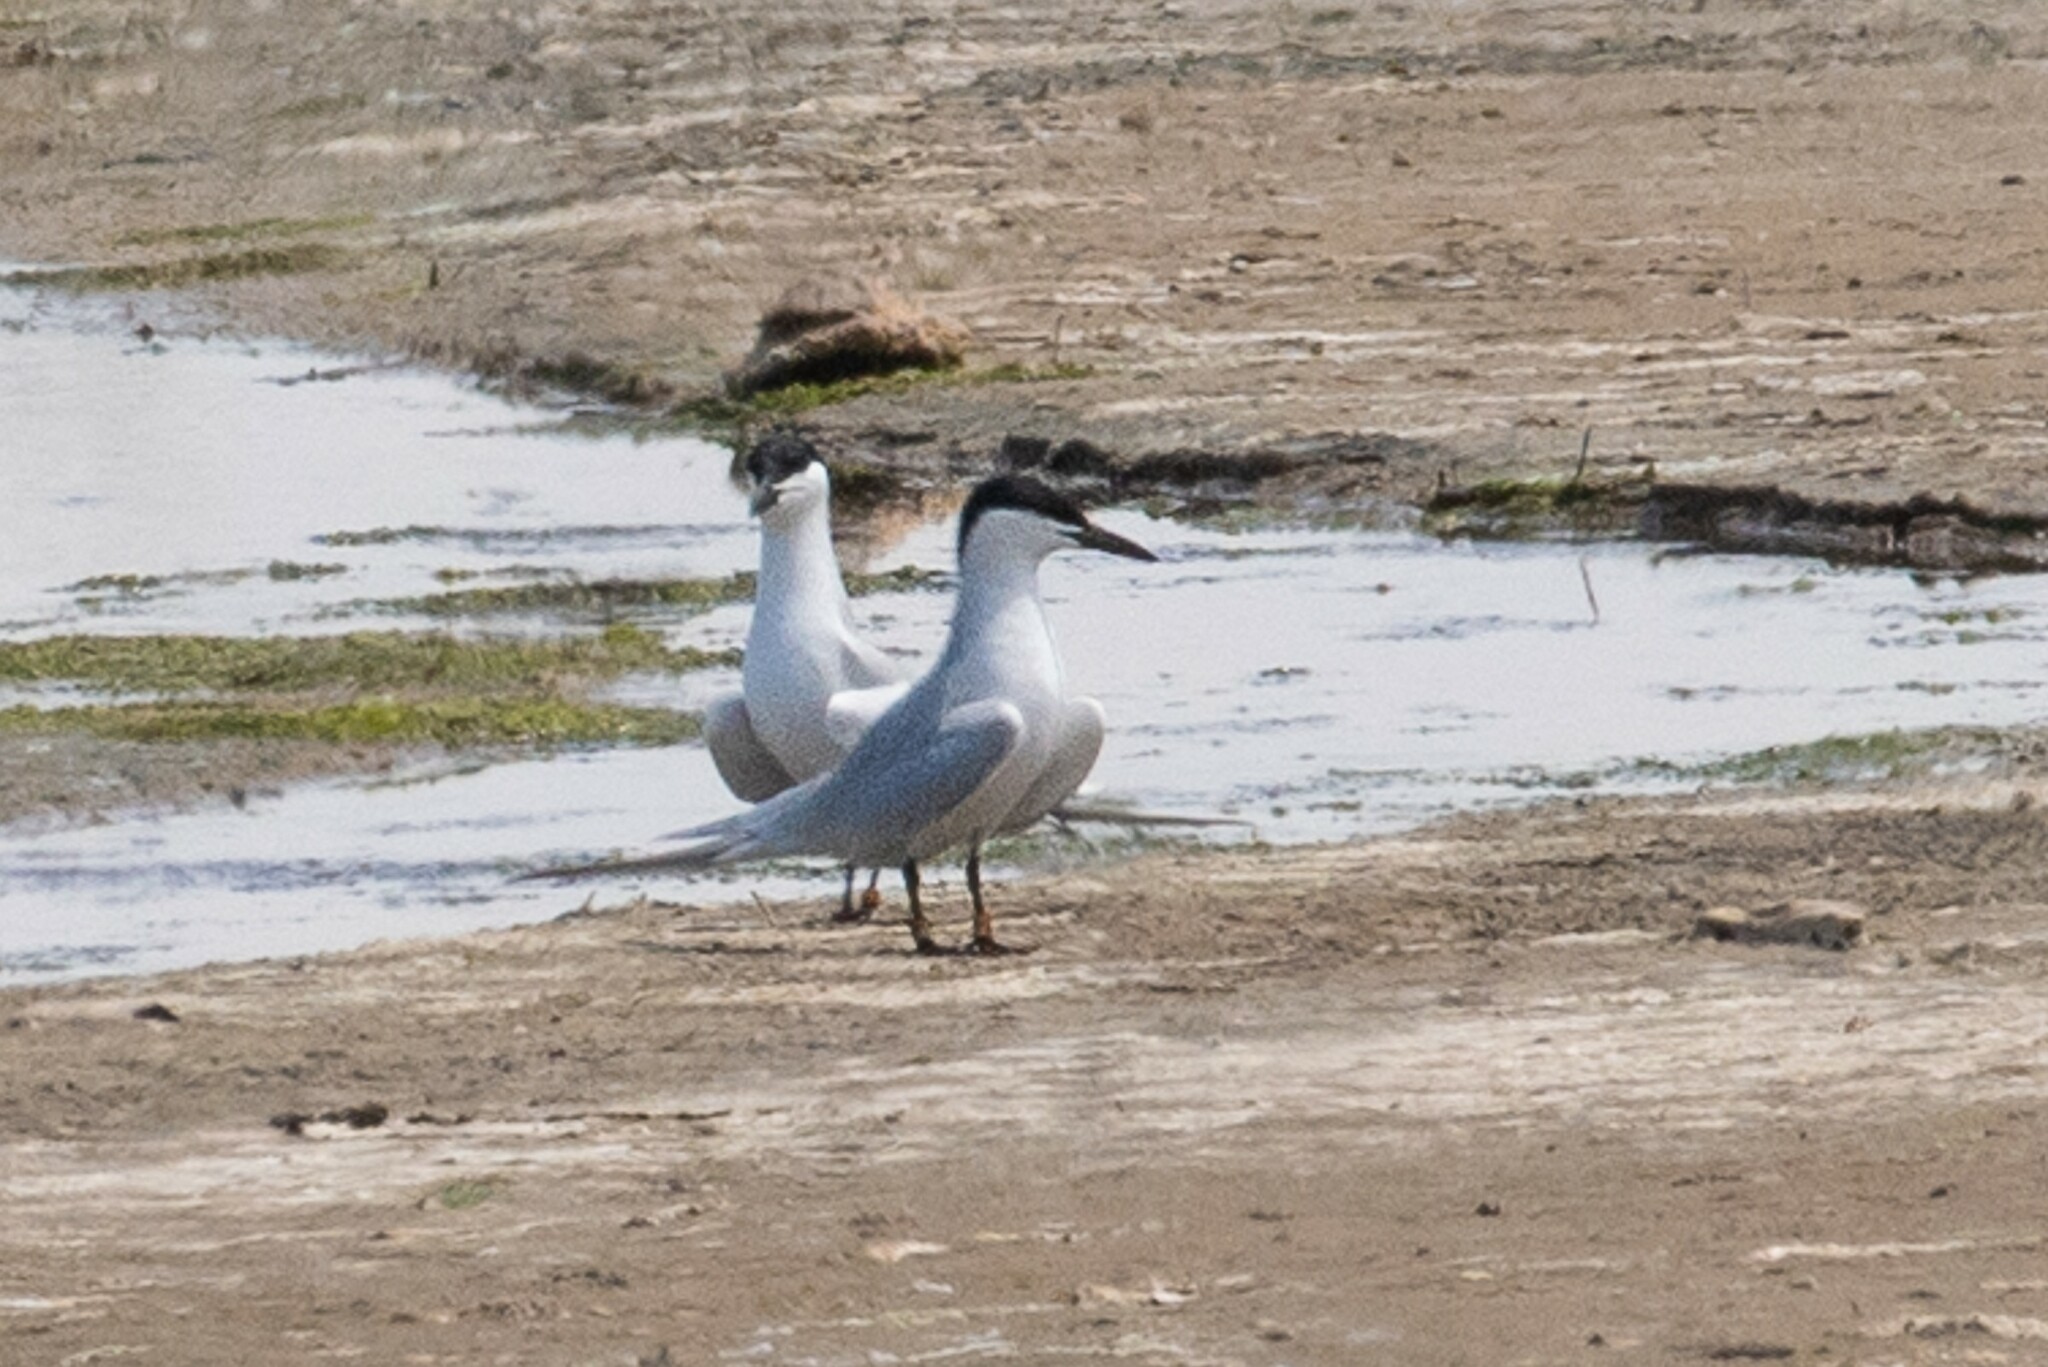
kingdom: Animalia
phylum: Chordata
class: Aves
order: Charadriiformes
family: Laridae
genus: Gelochelidon
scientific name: Gelochelidon nilotica
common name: Gull-billed tern
